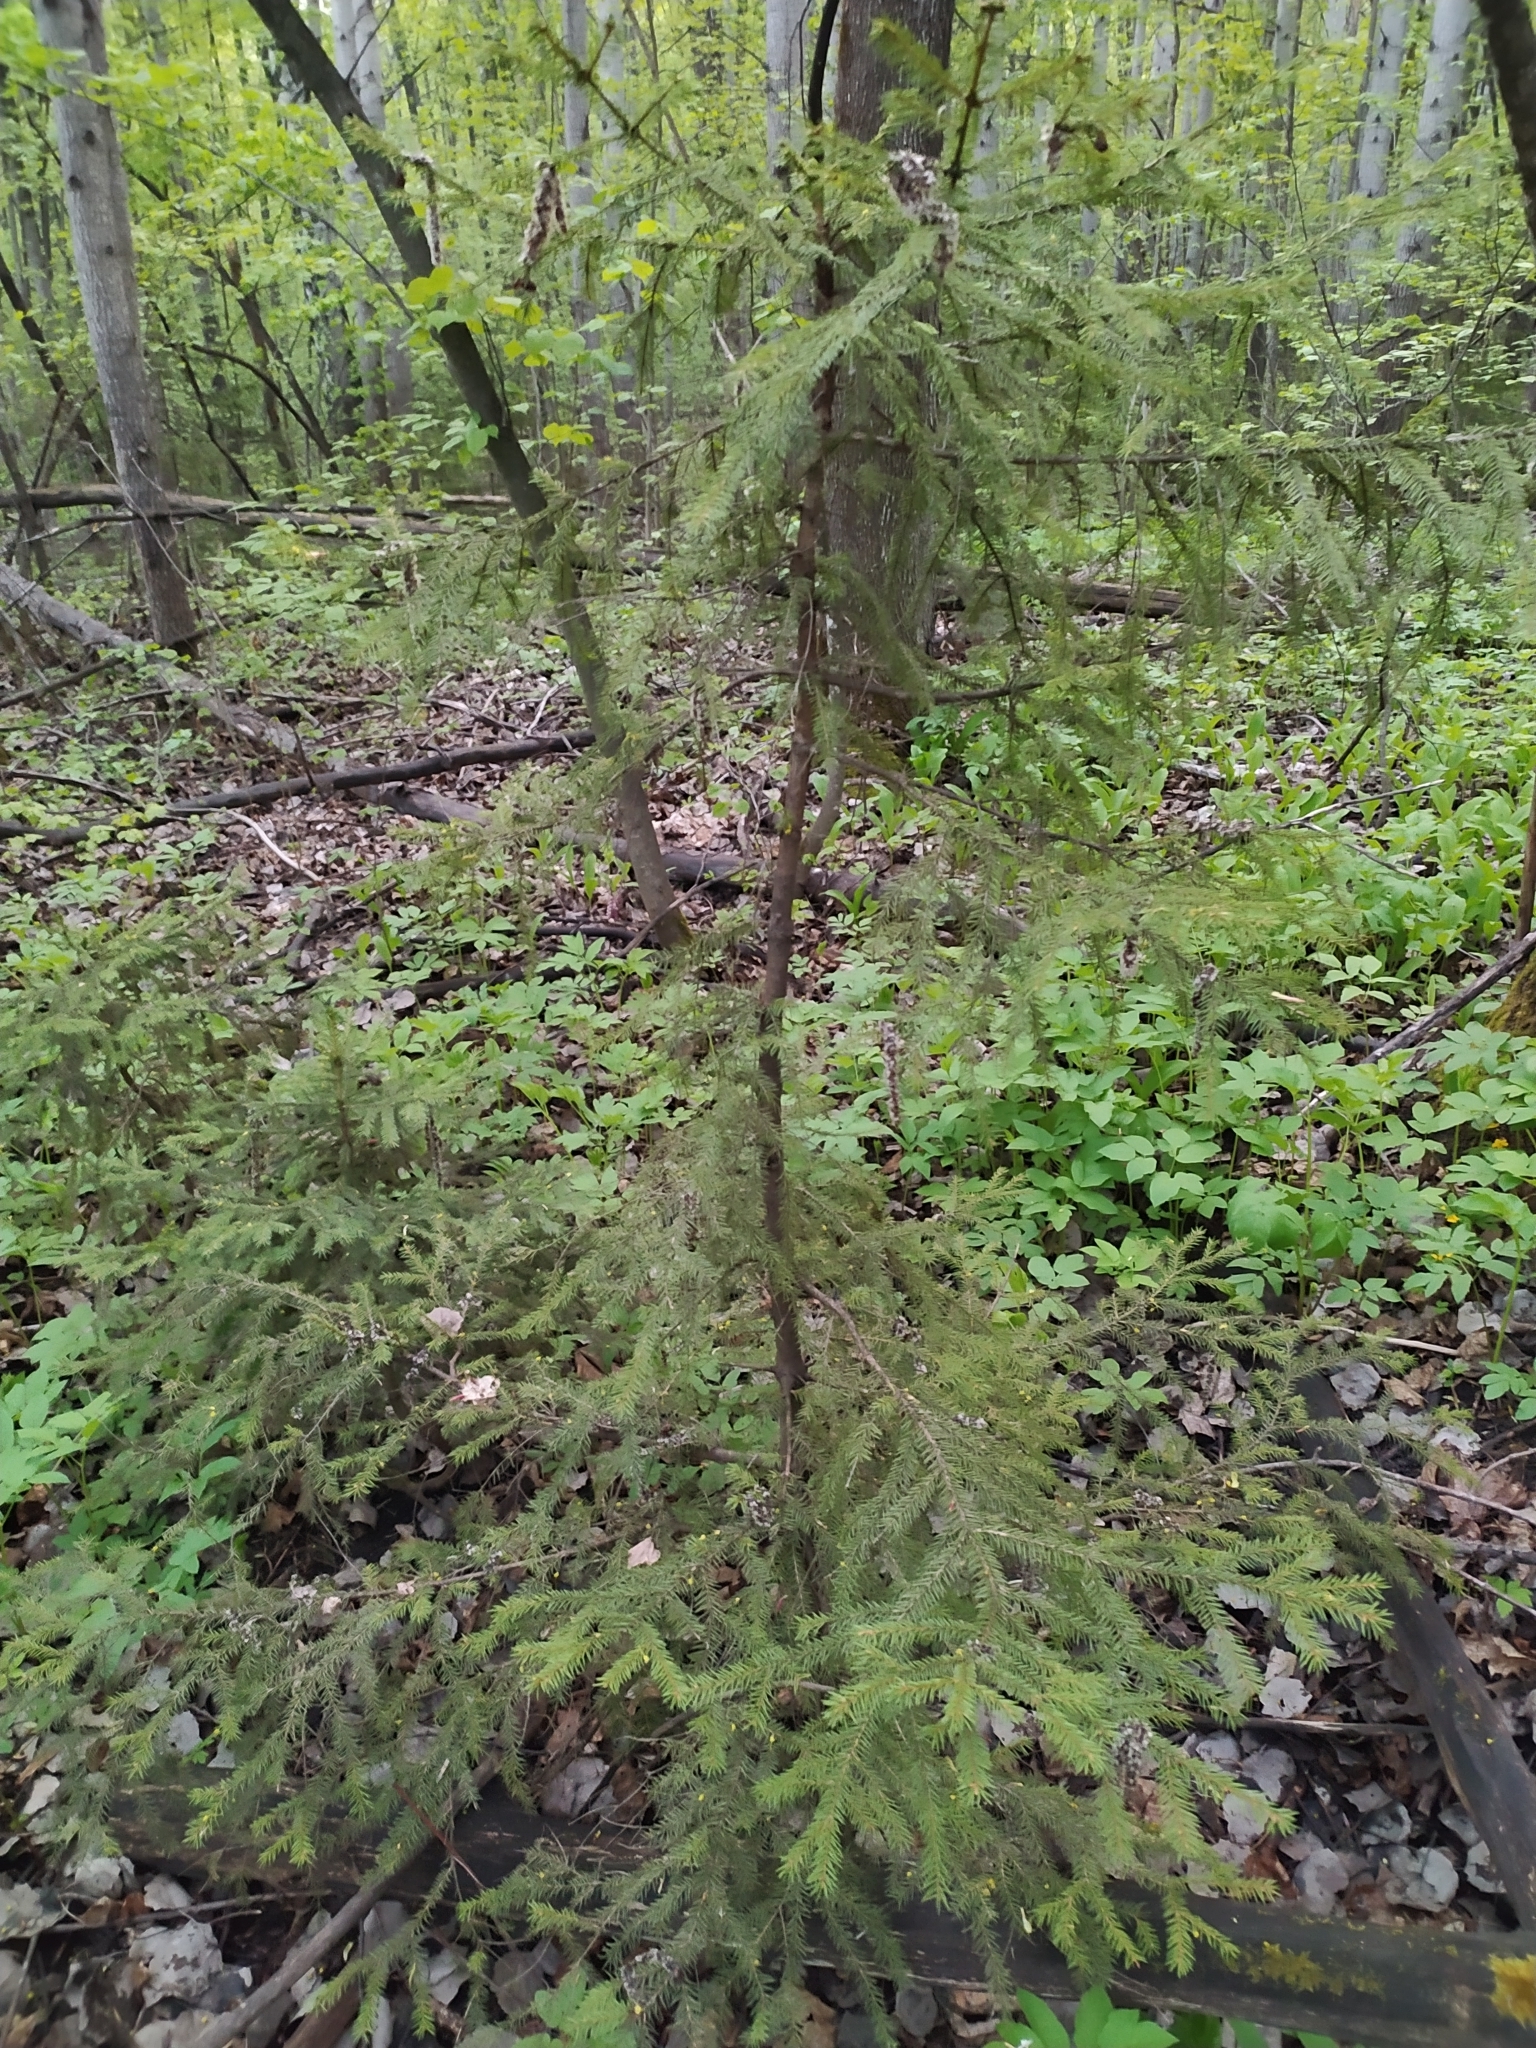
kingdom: Plantae
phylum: Tracheophyta
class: Pinopsida
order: Pinales
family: Pinaceae
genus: Picea
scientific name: Picea abies
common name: Norway spruce
